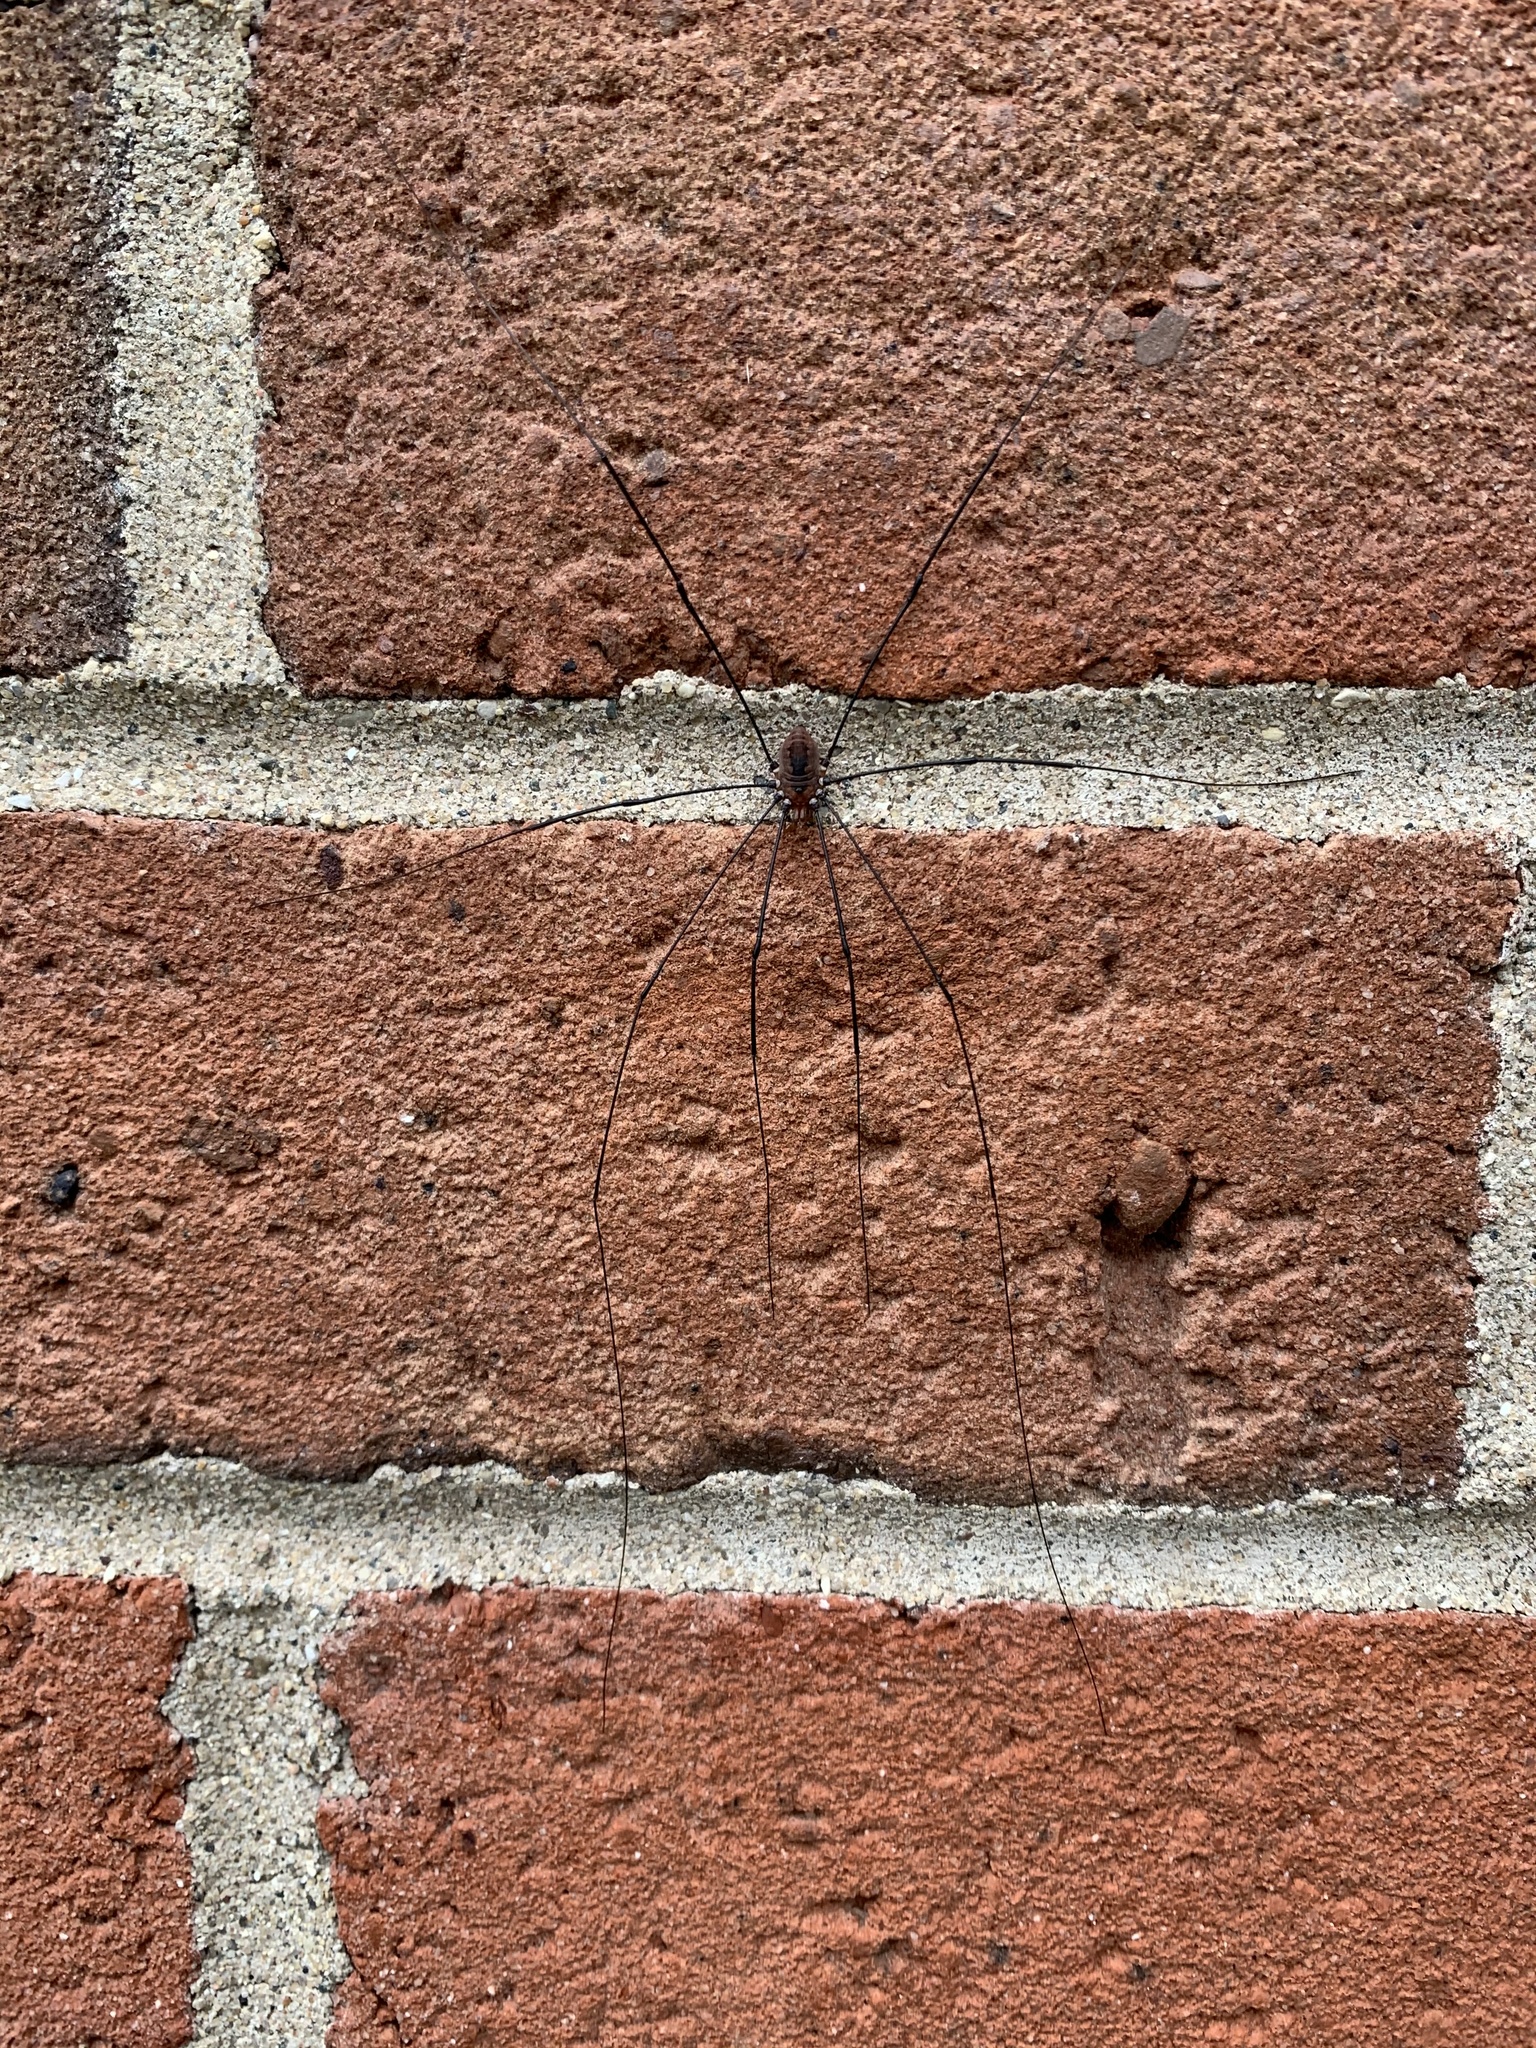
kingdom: Animalia
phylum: Arthropoda
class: Arachnida
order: Opiliones
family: Sclerosomatidae
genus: Leiobunum
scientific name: Leiobunum vittatum
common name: Eastern harvestman
